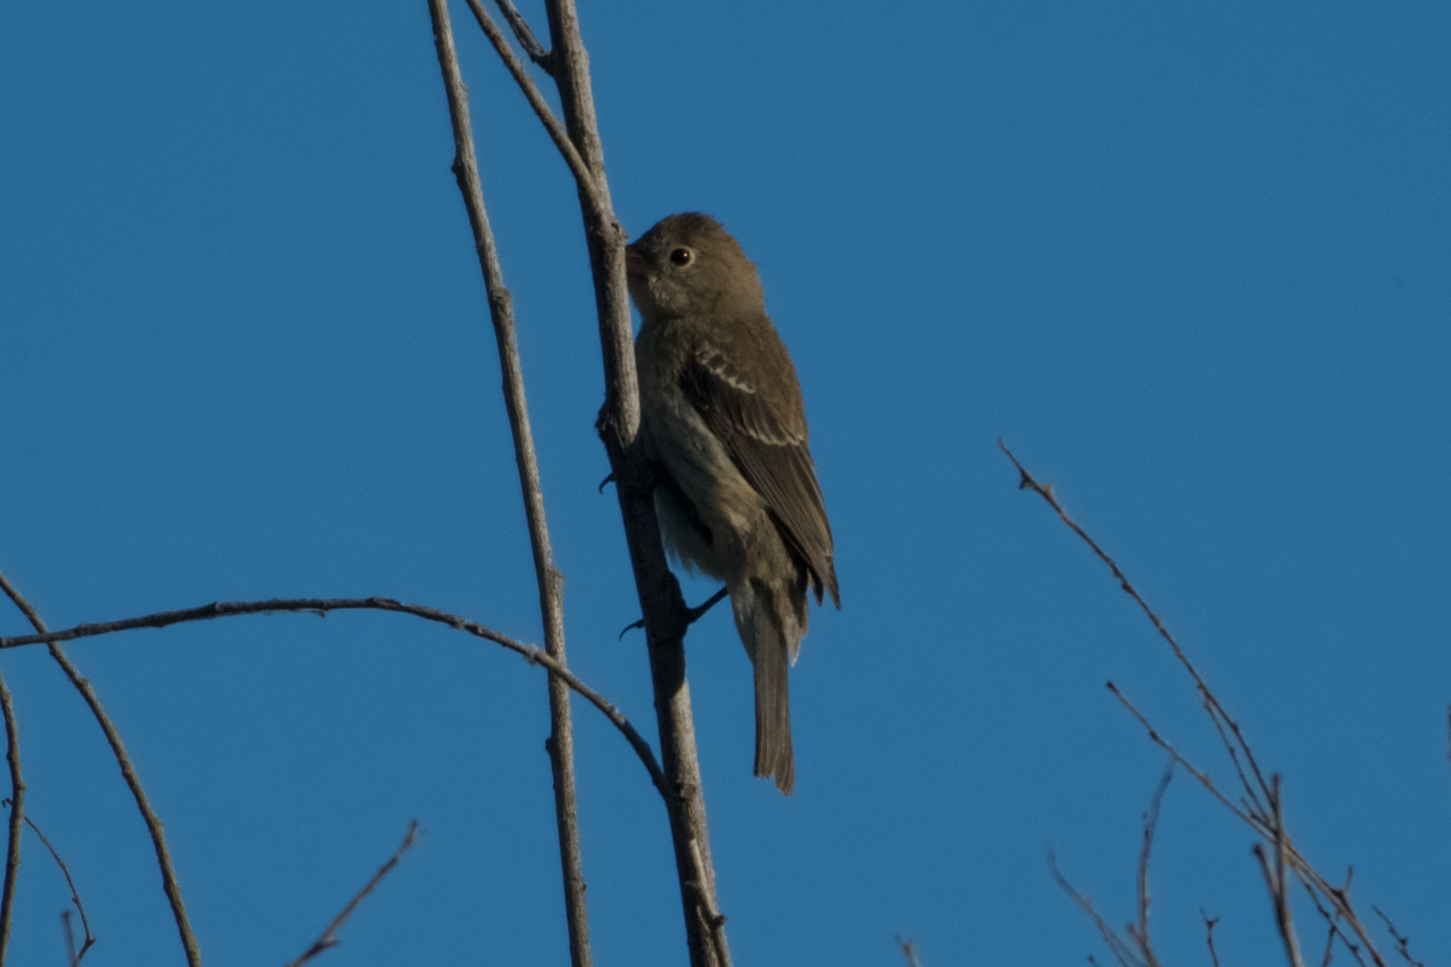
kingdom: Animalia
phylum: Chordata
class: Aves
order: Passeriformes
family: Cardinalidae
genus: Passerina
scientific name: Passerina amoena
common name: Lazuli bunting
